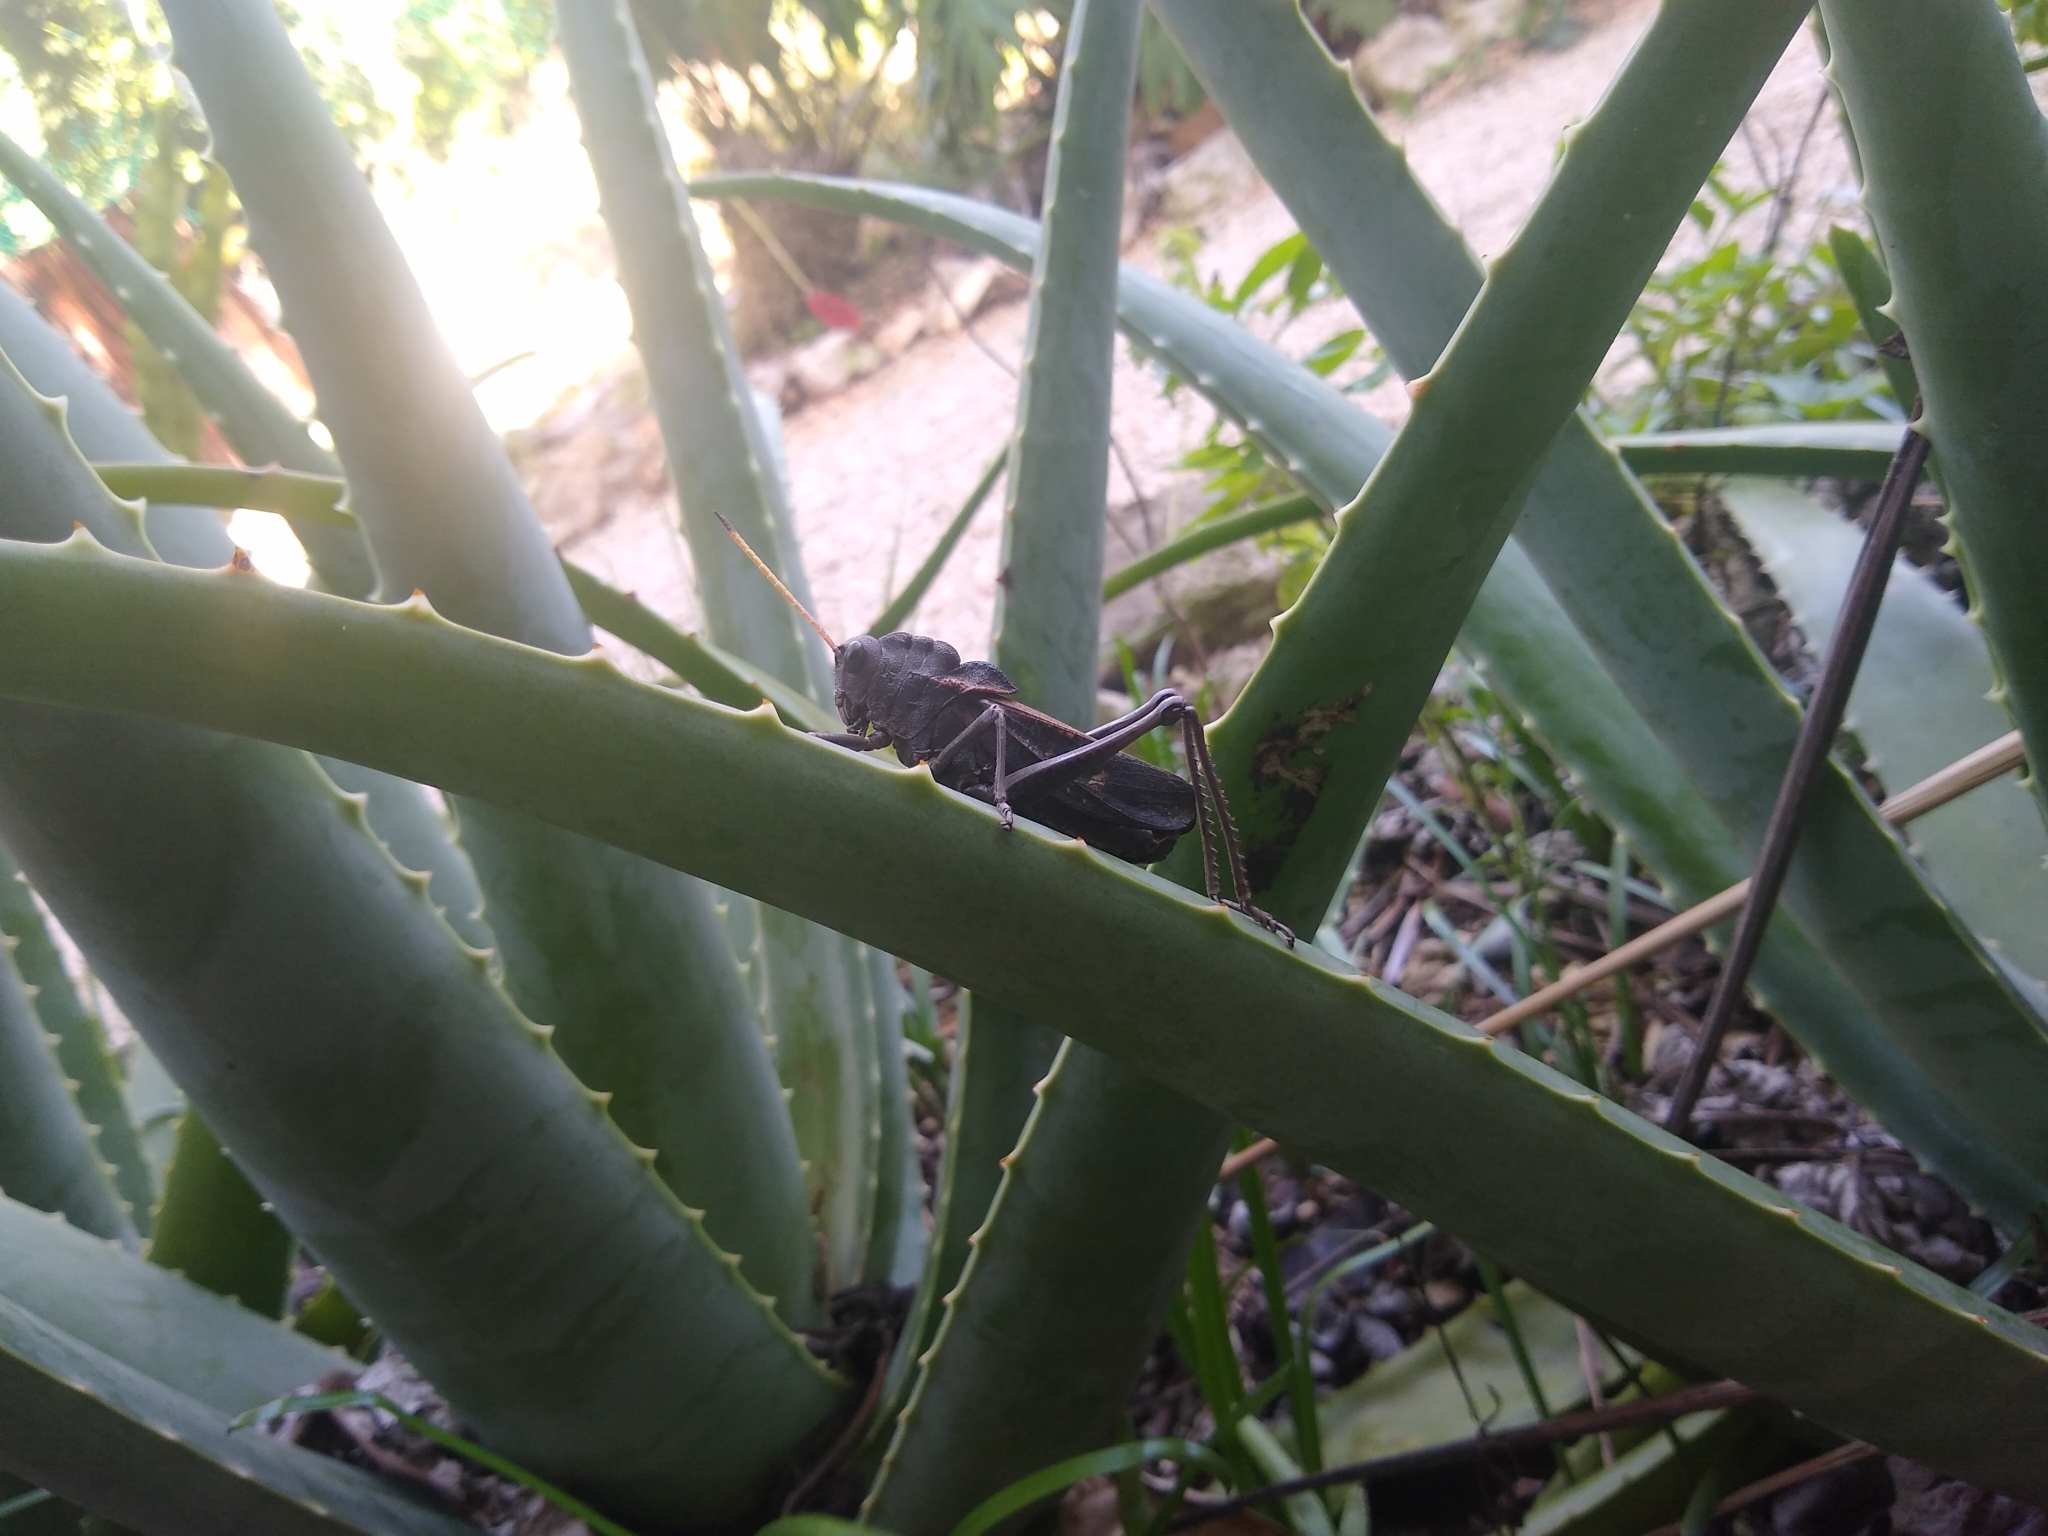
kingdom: Animalia
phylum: Arthropoda
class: Insecta
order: Orthoptera
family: Romaleidae
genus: Romalea
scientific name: Romalea
